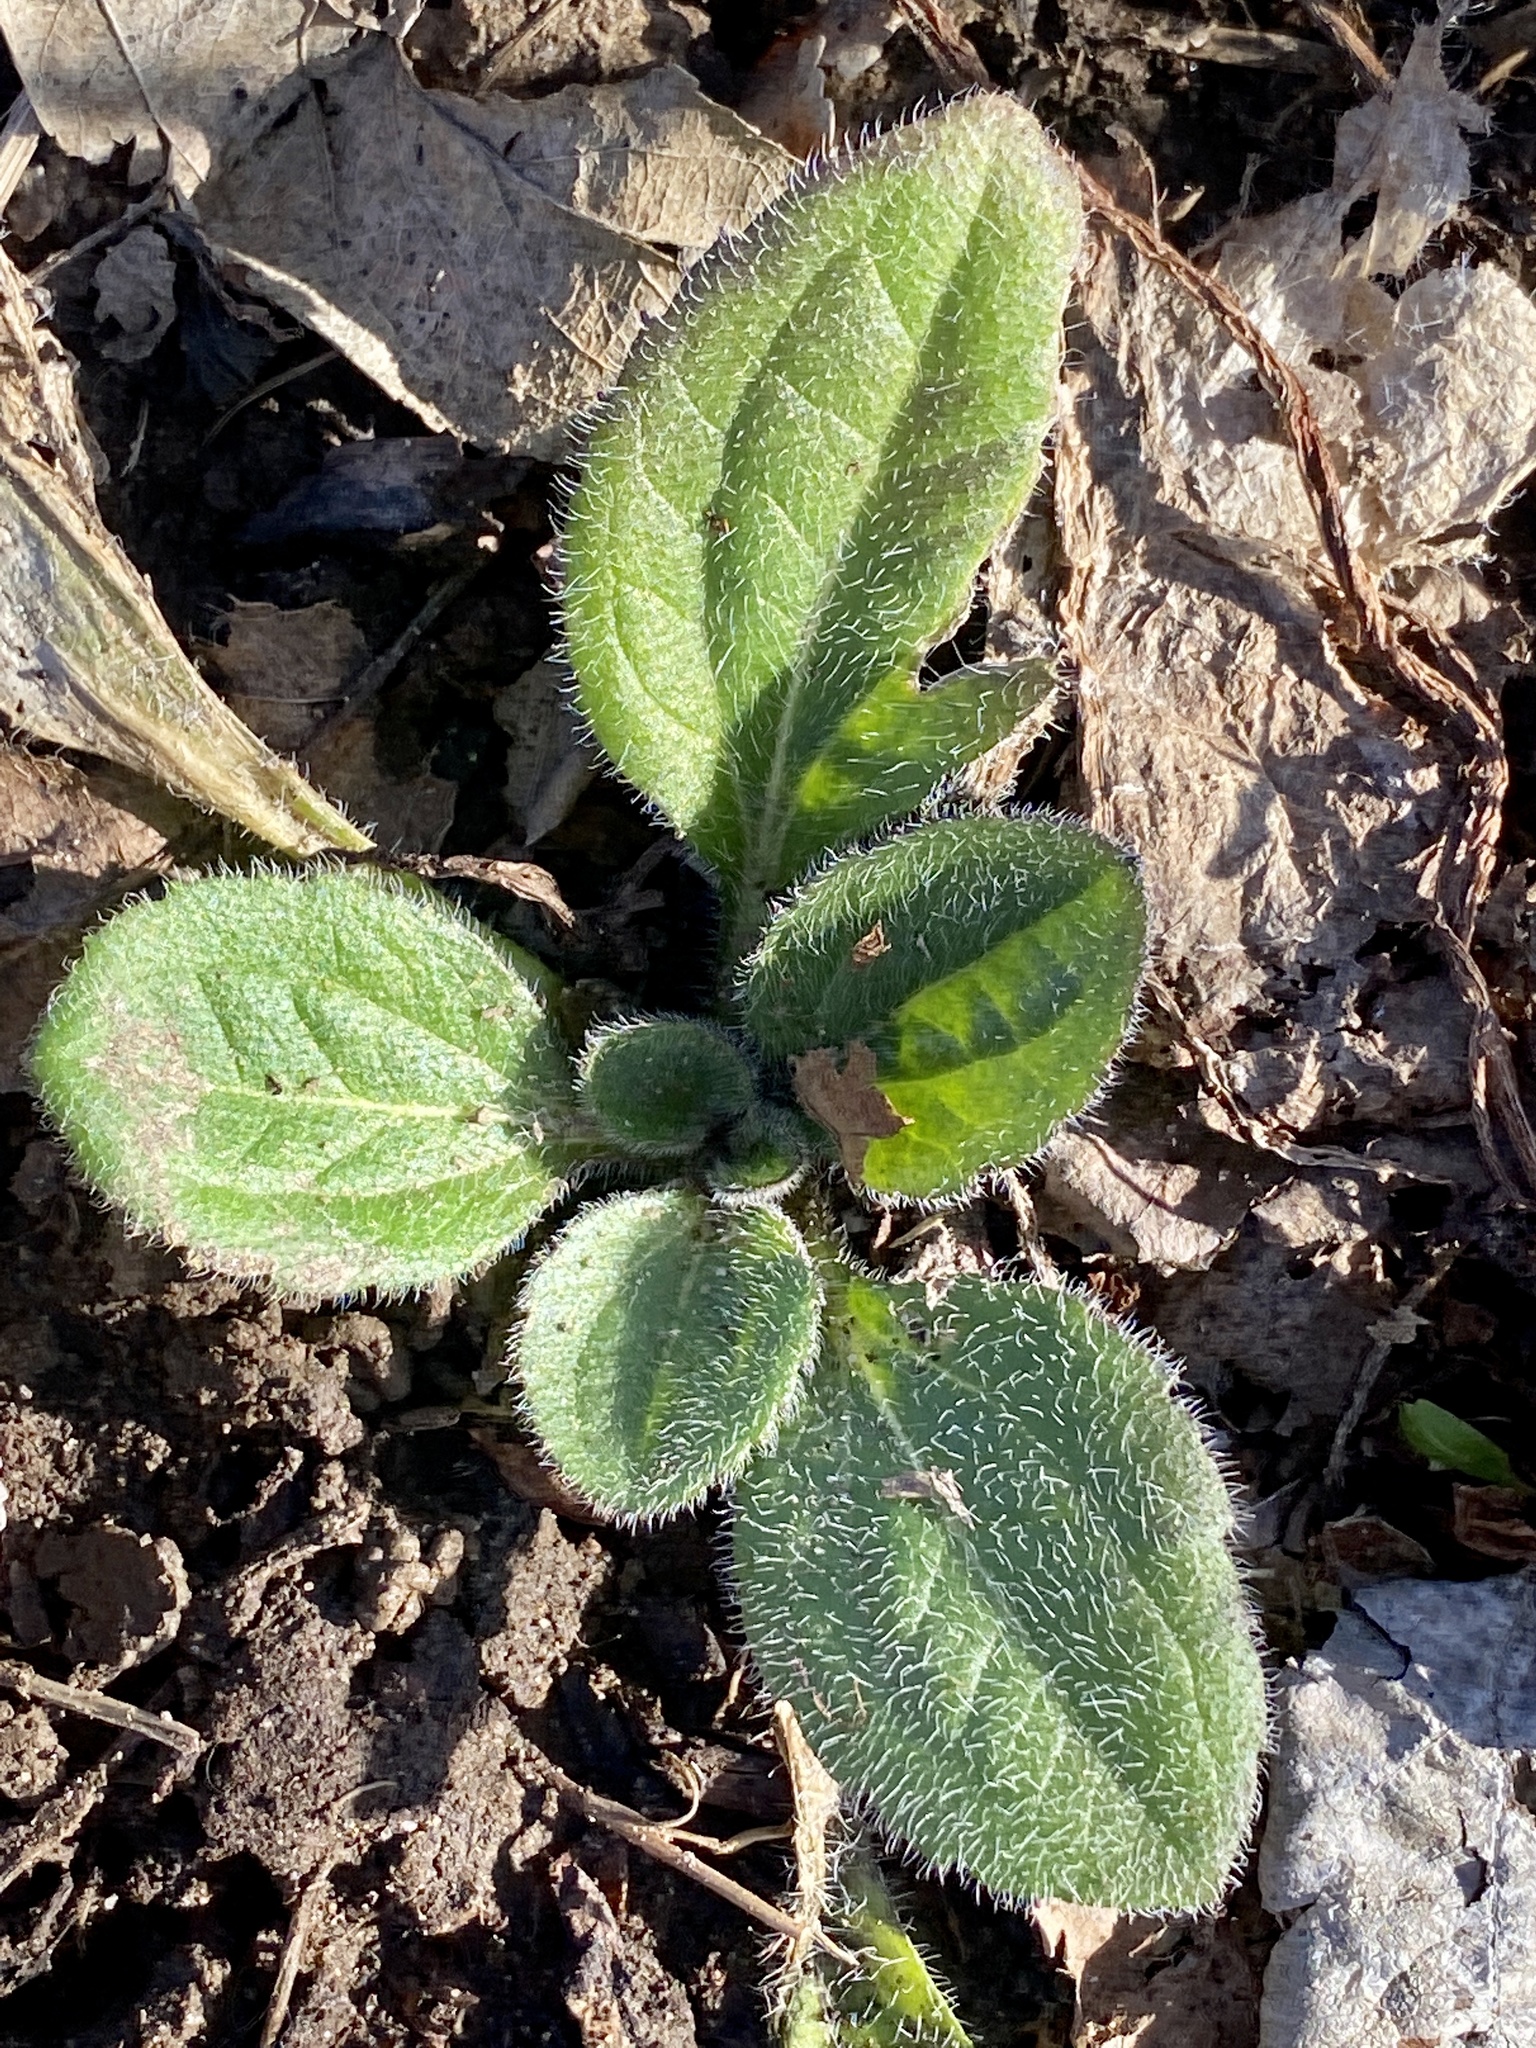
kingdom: Plantae
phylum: Tracheophyta
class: Magnoliopsida
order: Asterales
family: Asteraceae
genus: Rudbeckia
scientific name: Rudbeckia hirta
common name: Black-eyed-susan
